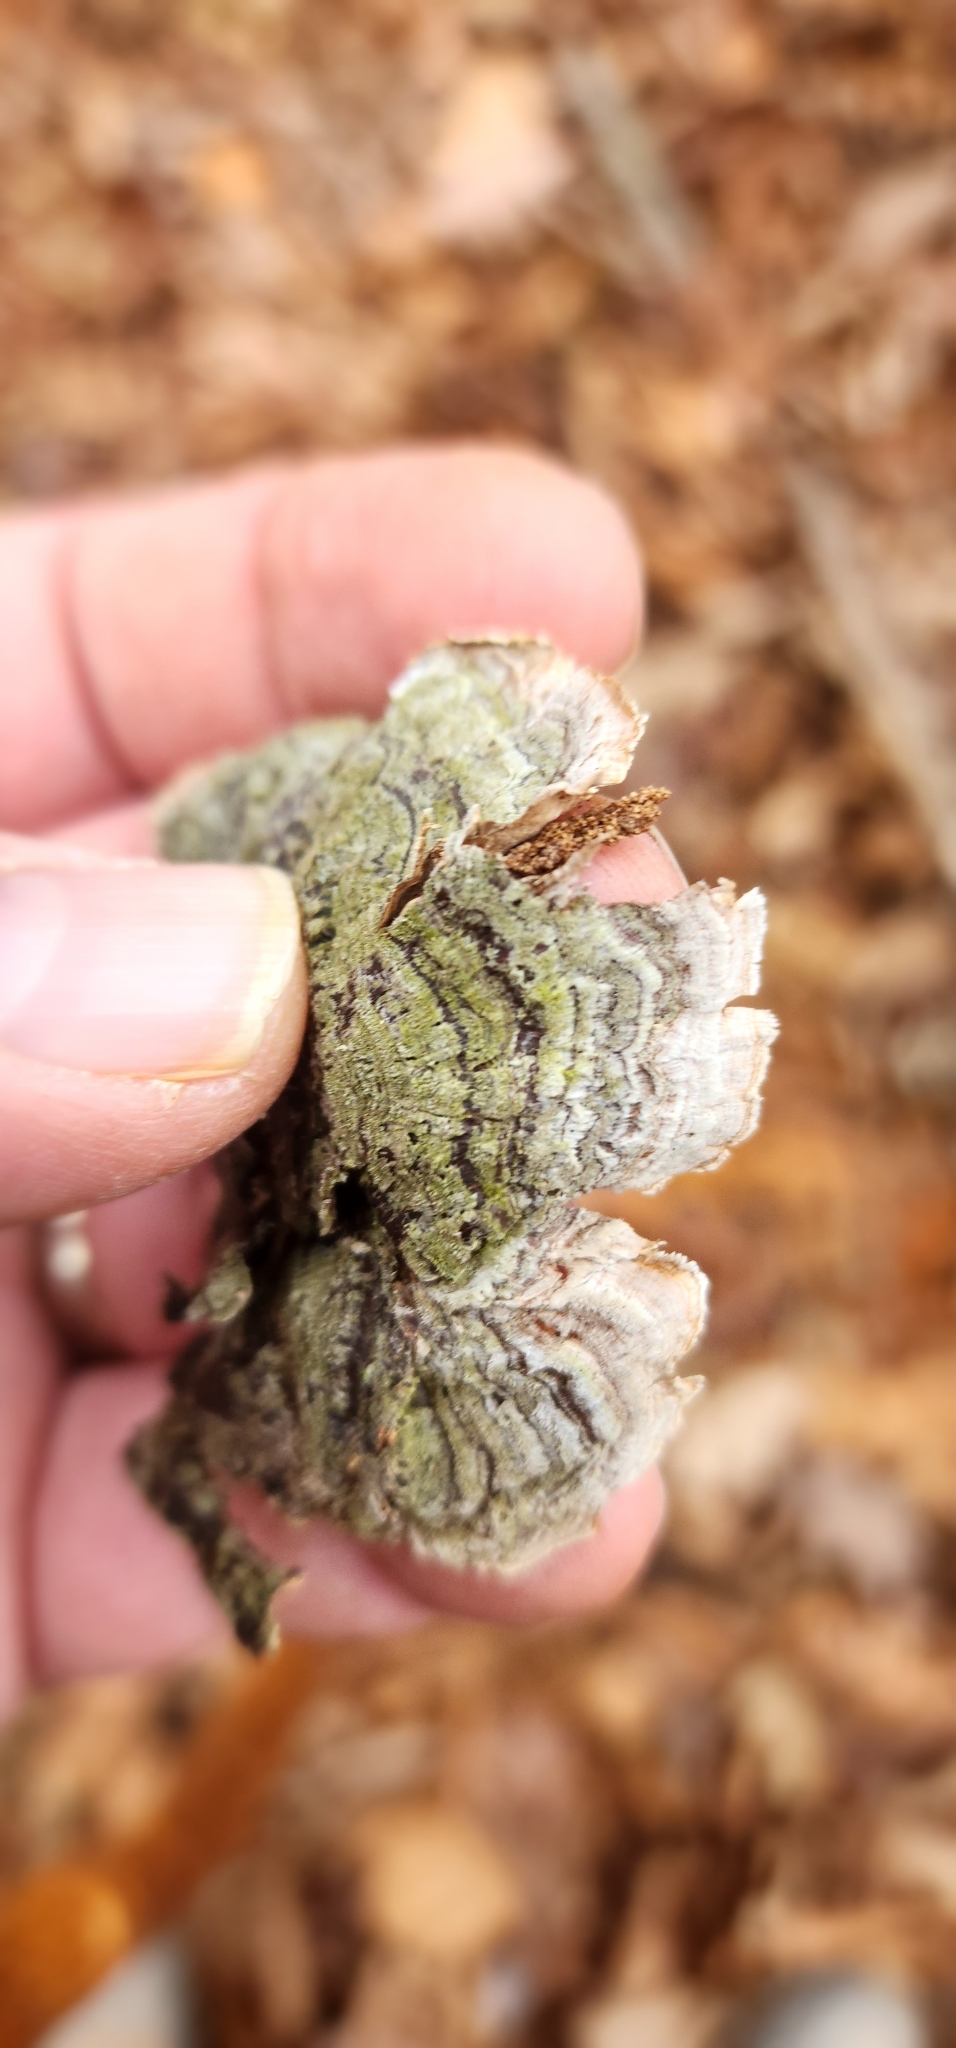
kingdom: Fungi
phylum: Basidiomycota
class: Agaricomycetes
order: Russulales
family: Stereaceae
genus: Stereum
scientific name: Stereum ostrea
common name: False turkeytail
